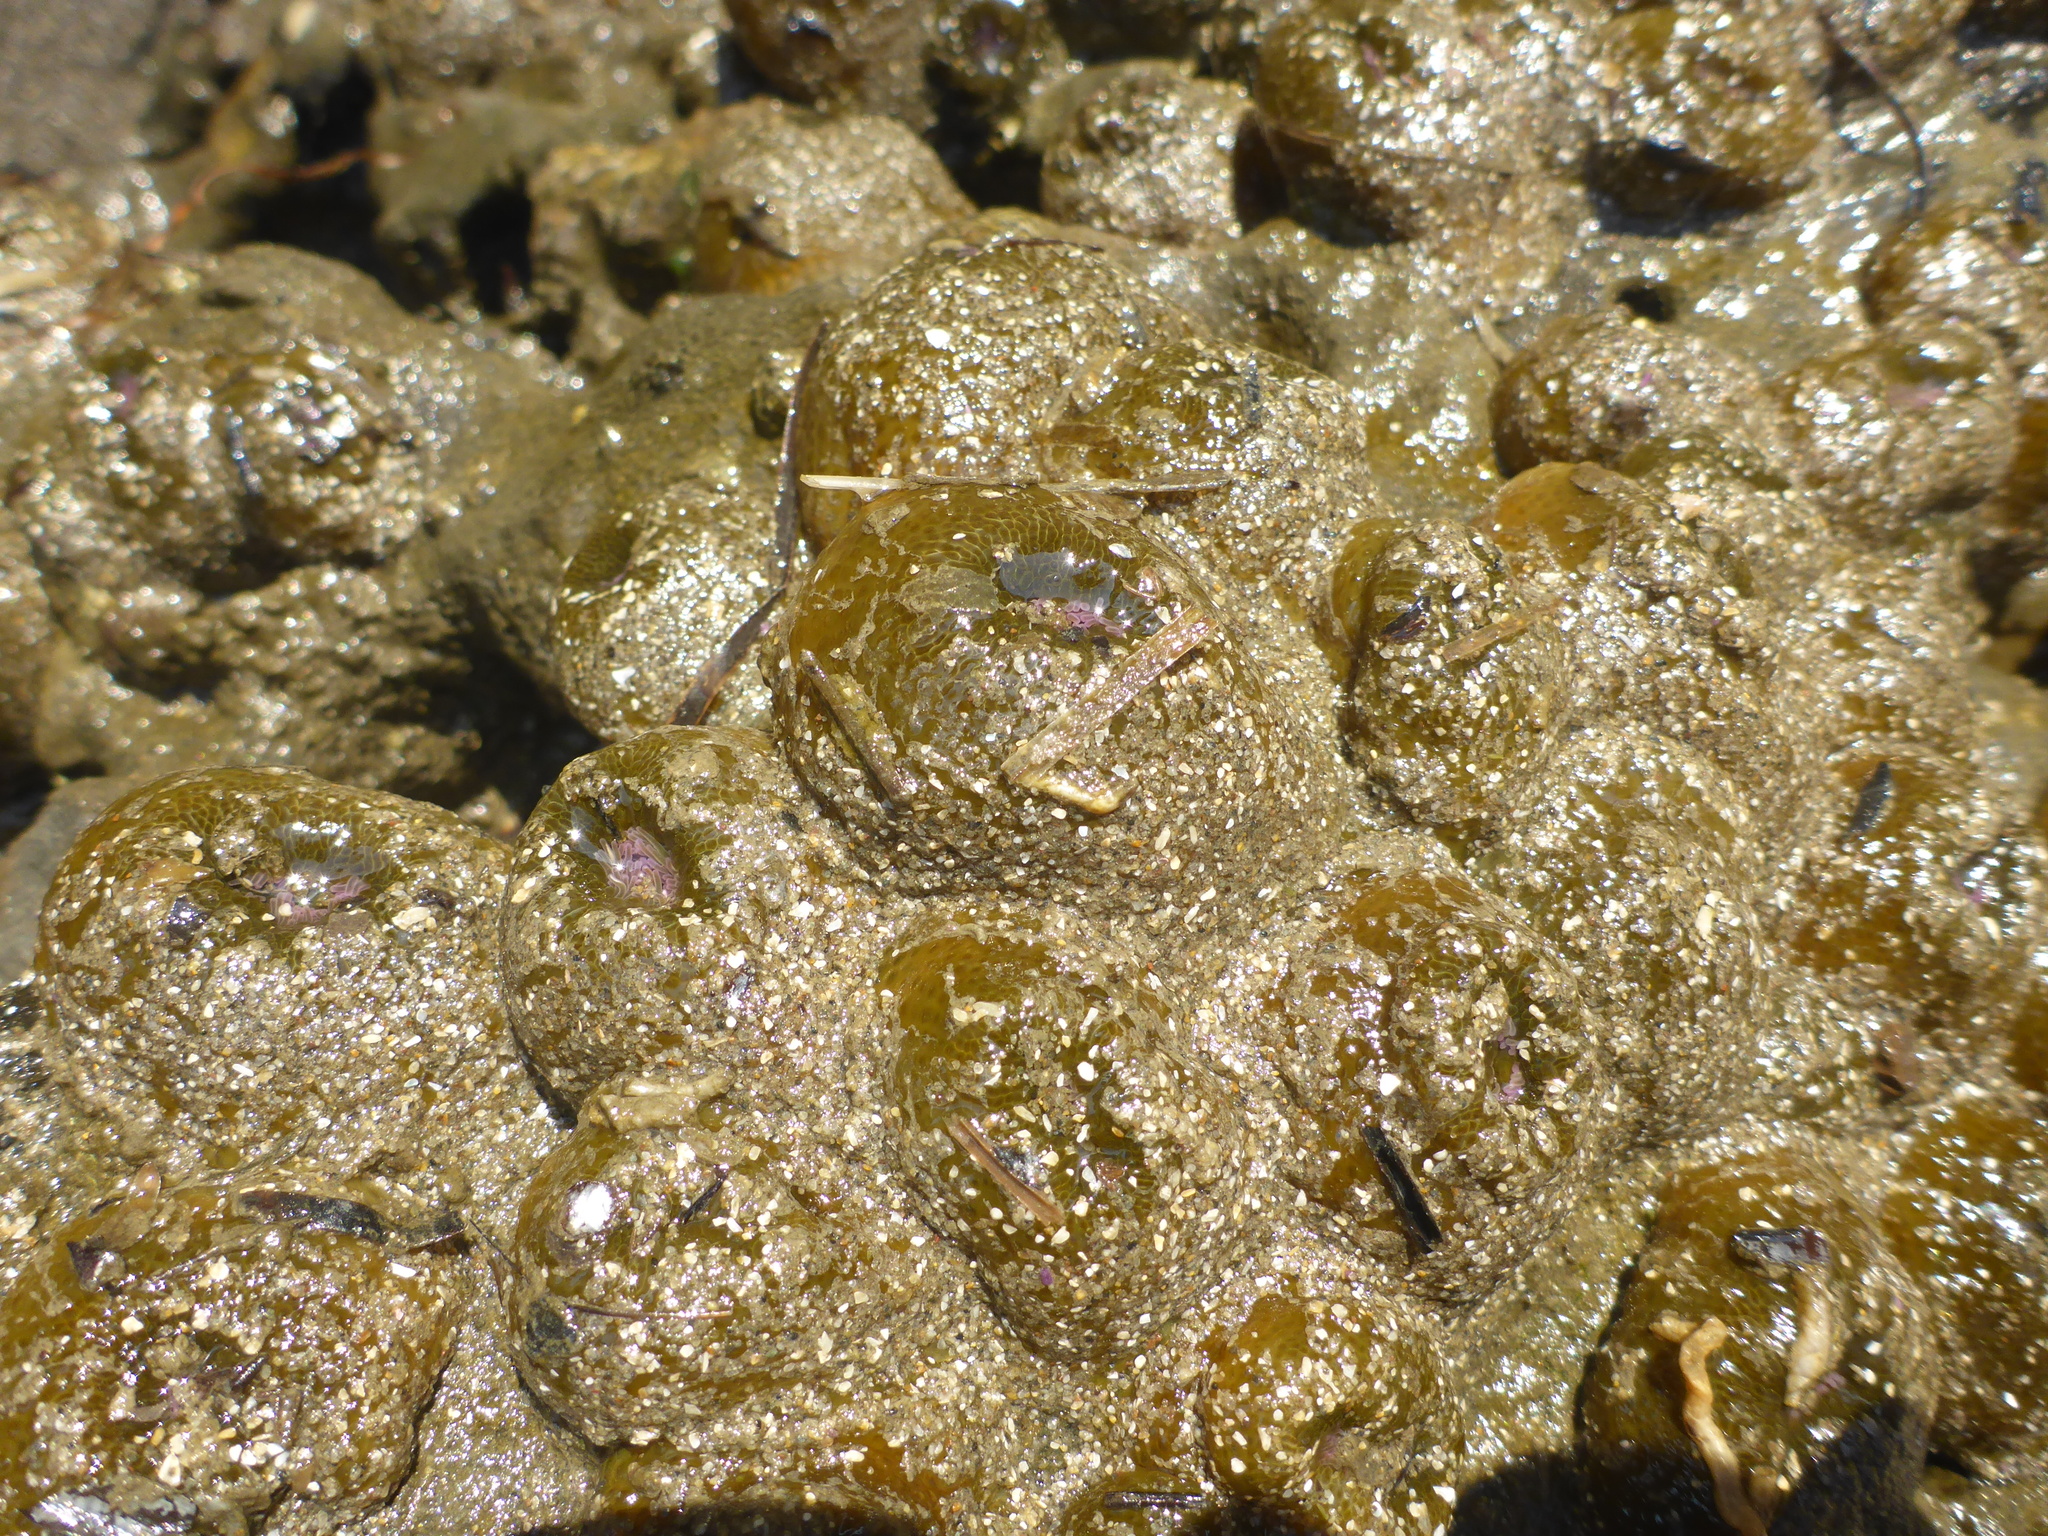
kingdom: Animalia
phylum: Cnidaria
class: Anthozoa
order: Actiniaria
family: Actiniidae
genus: Anthopleura
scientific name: Anthopleura elegantissima
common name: Clonal anemone
